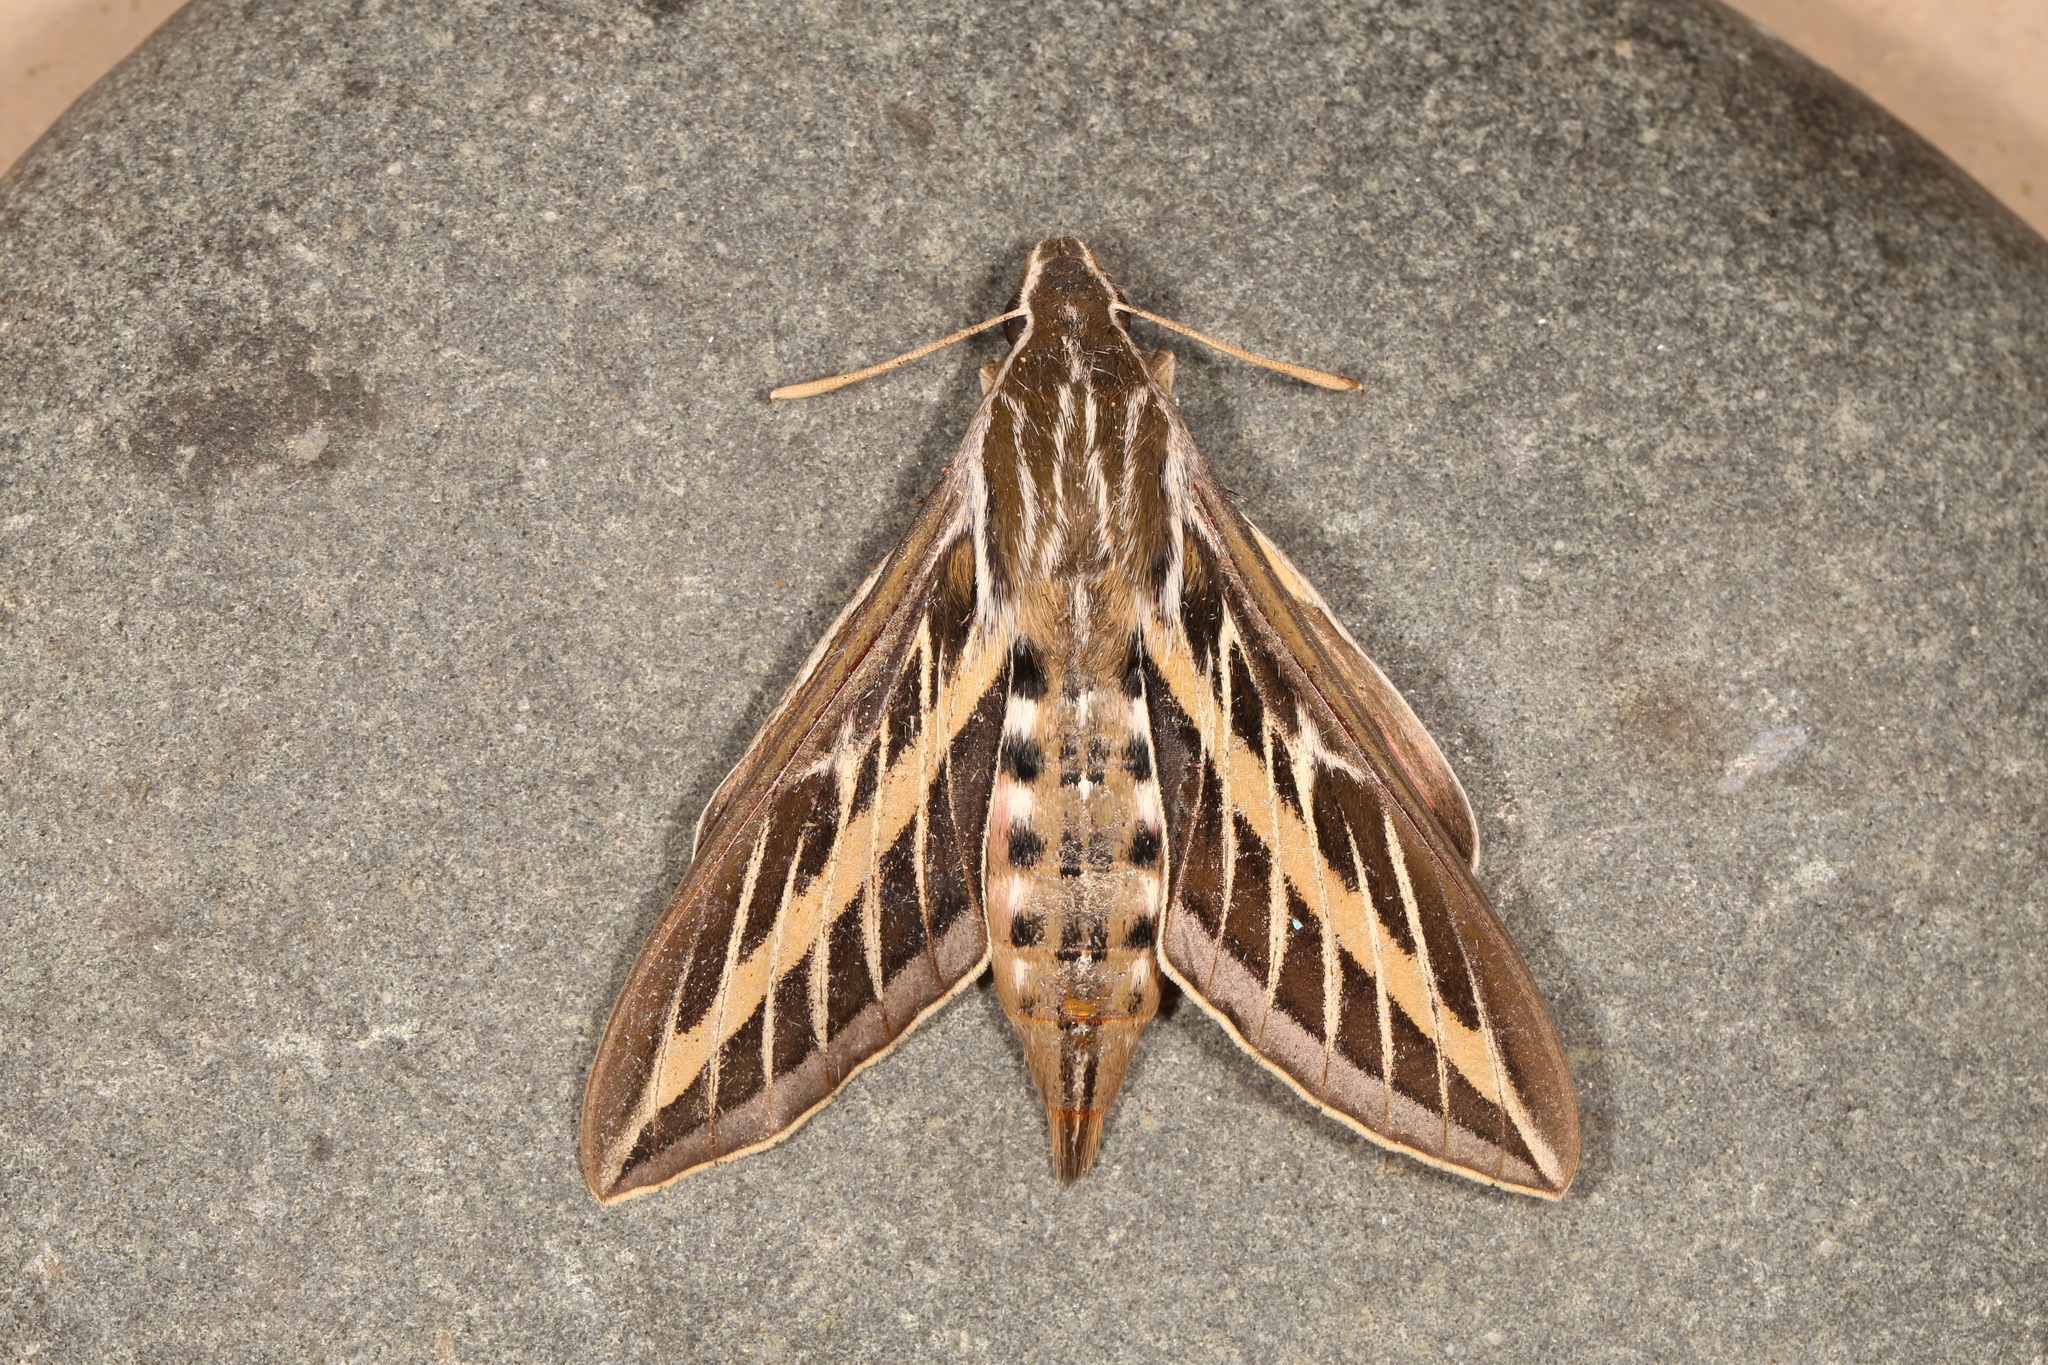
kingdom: Animalia
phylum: Arthropoda
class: Insecta
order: Lepidoptera
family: Sphingidae
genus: Hyles
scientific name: Hyles lineata
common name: White-lined sphinx
